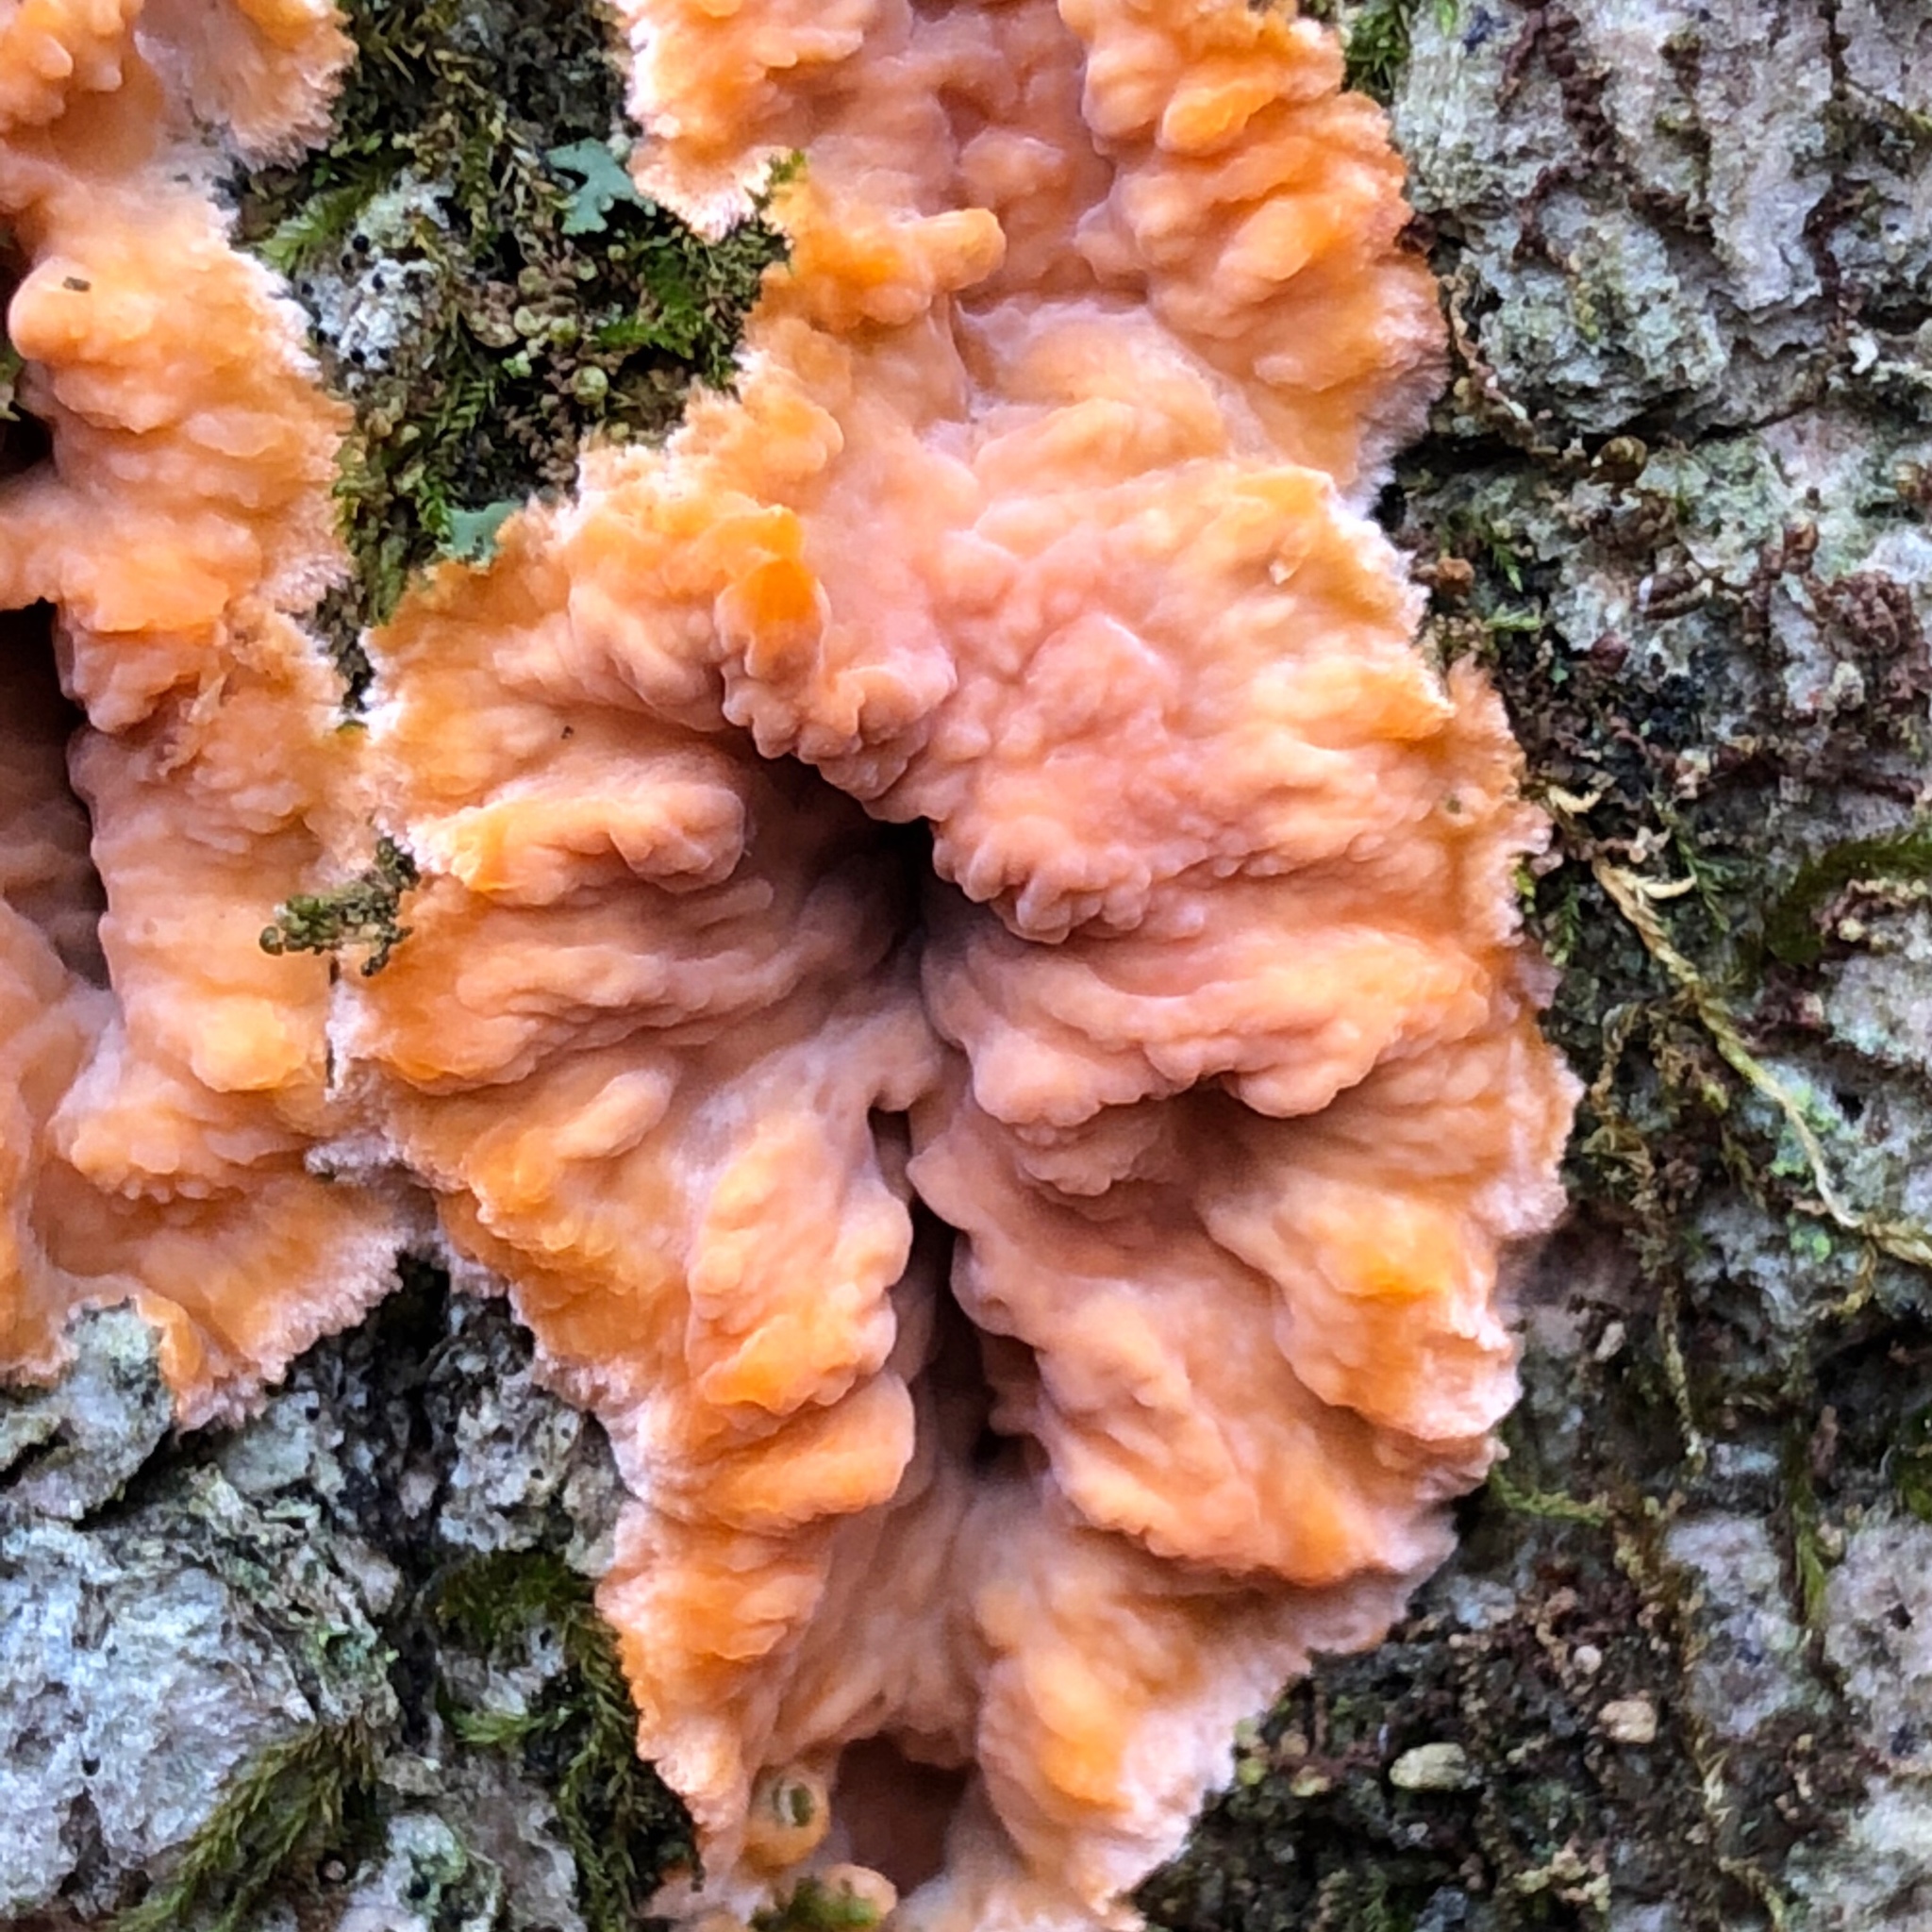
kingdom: Fungi
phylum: Basidiomycota
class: Agaricomycetes
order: Polyporales
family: Meruliaceae
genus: Phlebia
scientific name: Phlebia radiata
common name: Wrinkled crust
